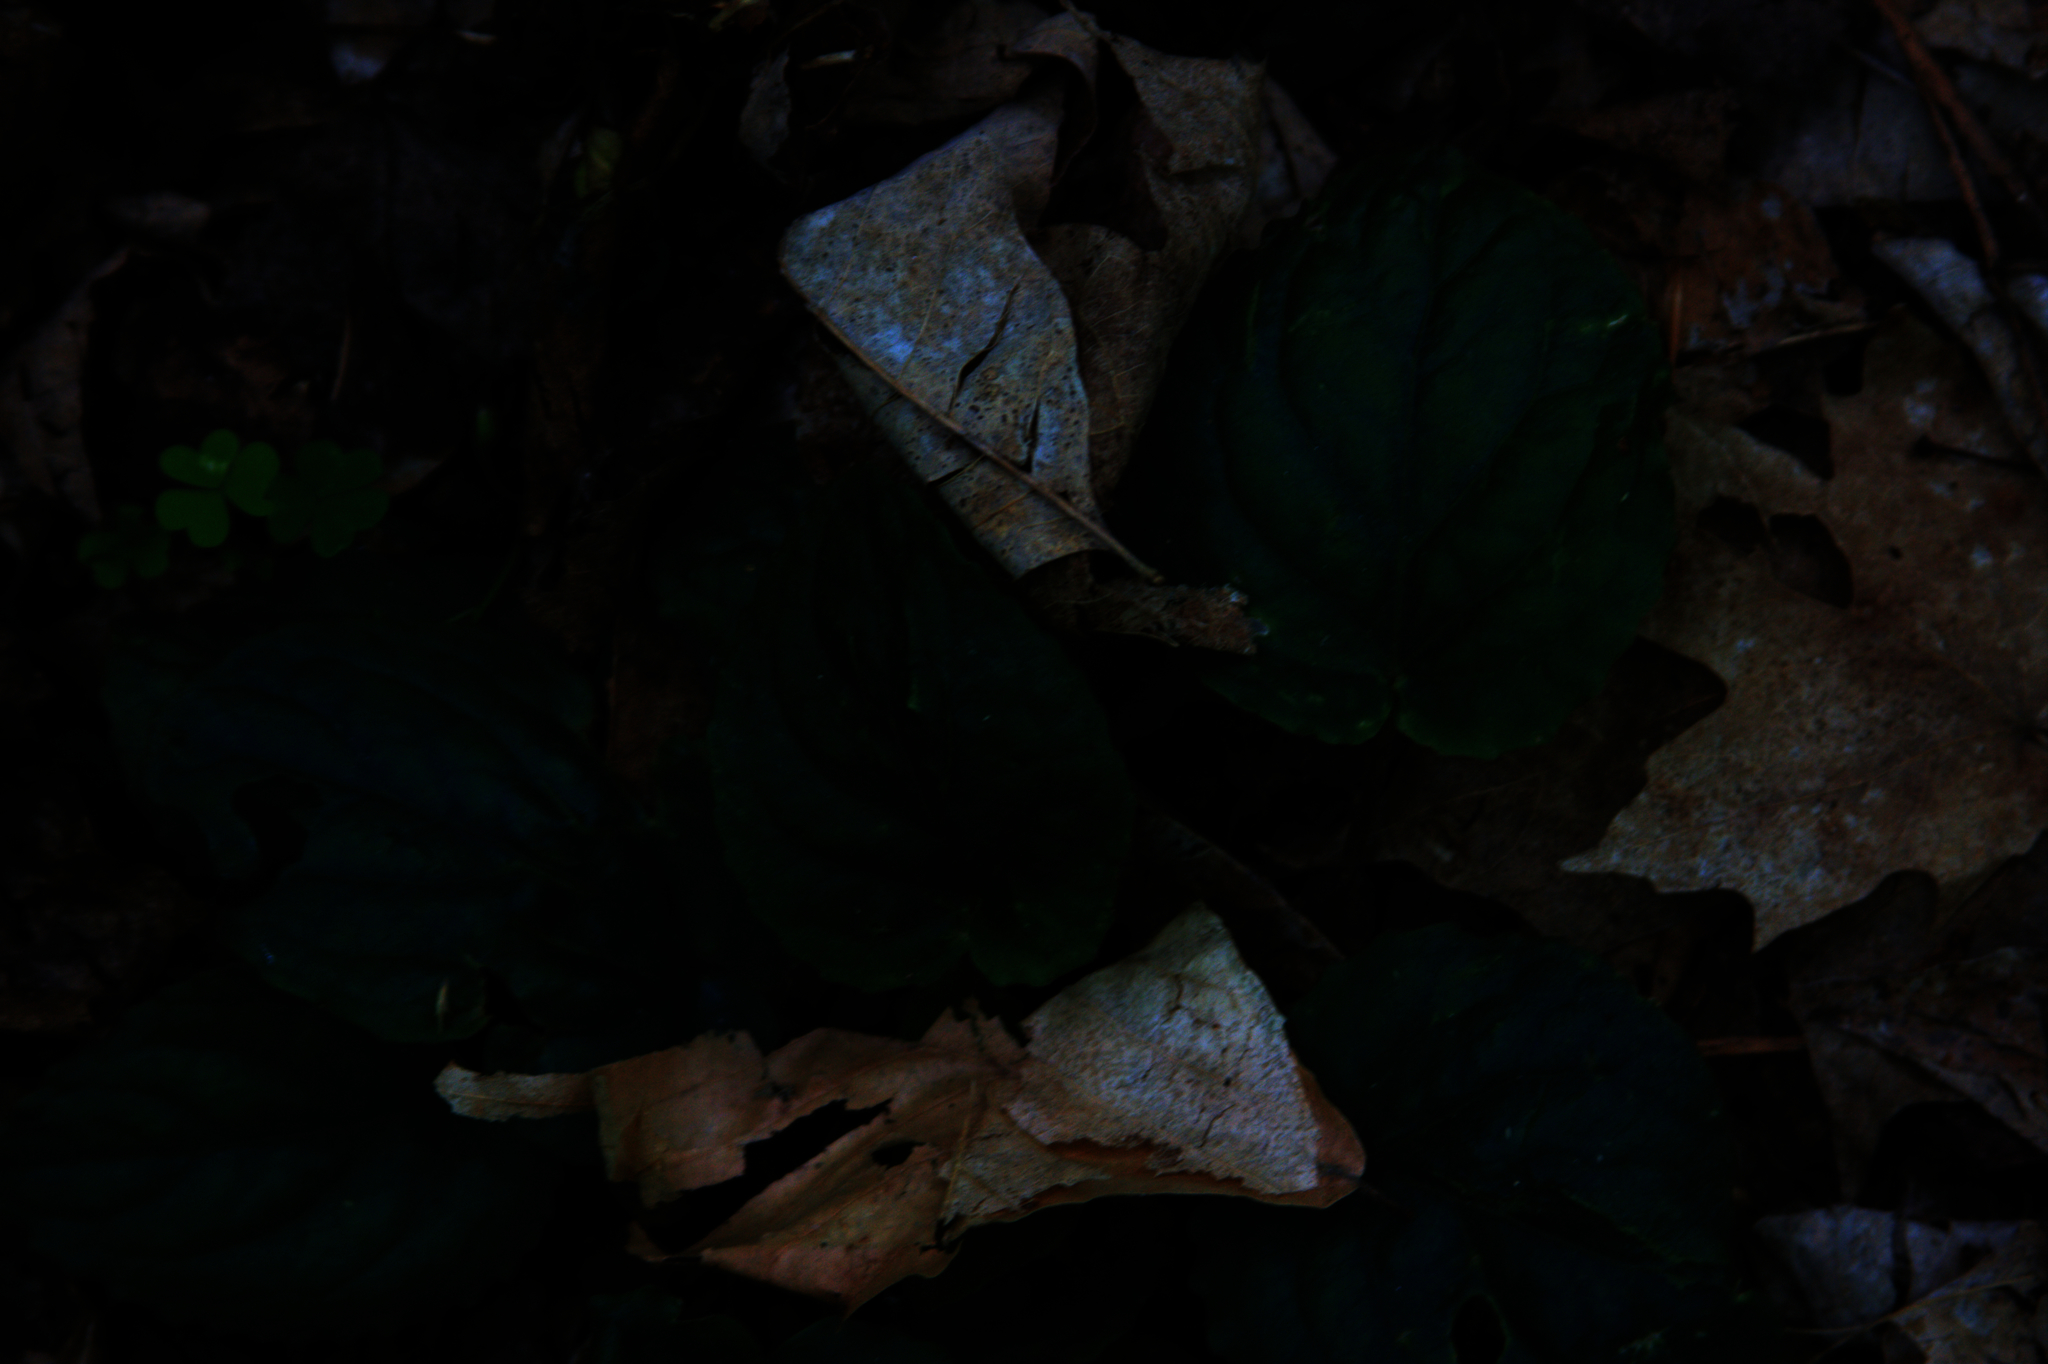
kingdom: Plantae
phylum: Tracheophyta
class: Magnoliopsida
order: Malpighiales
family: Violaceae
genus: Viola
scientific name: Viola rotundifolia
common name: Early yellow violet
